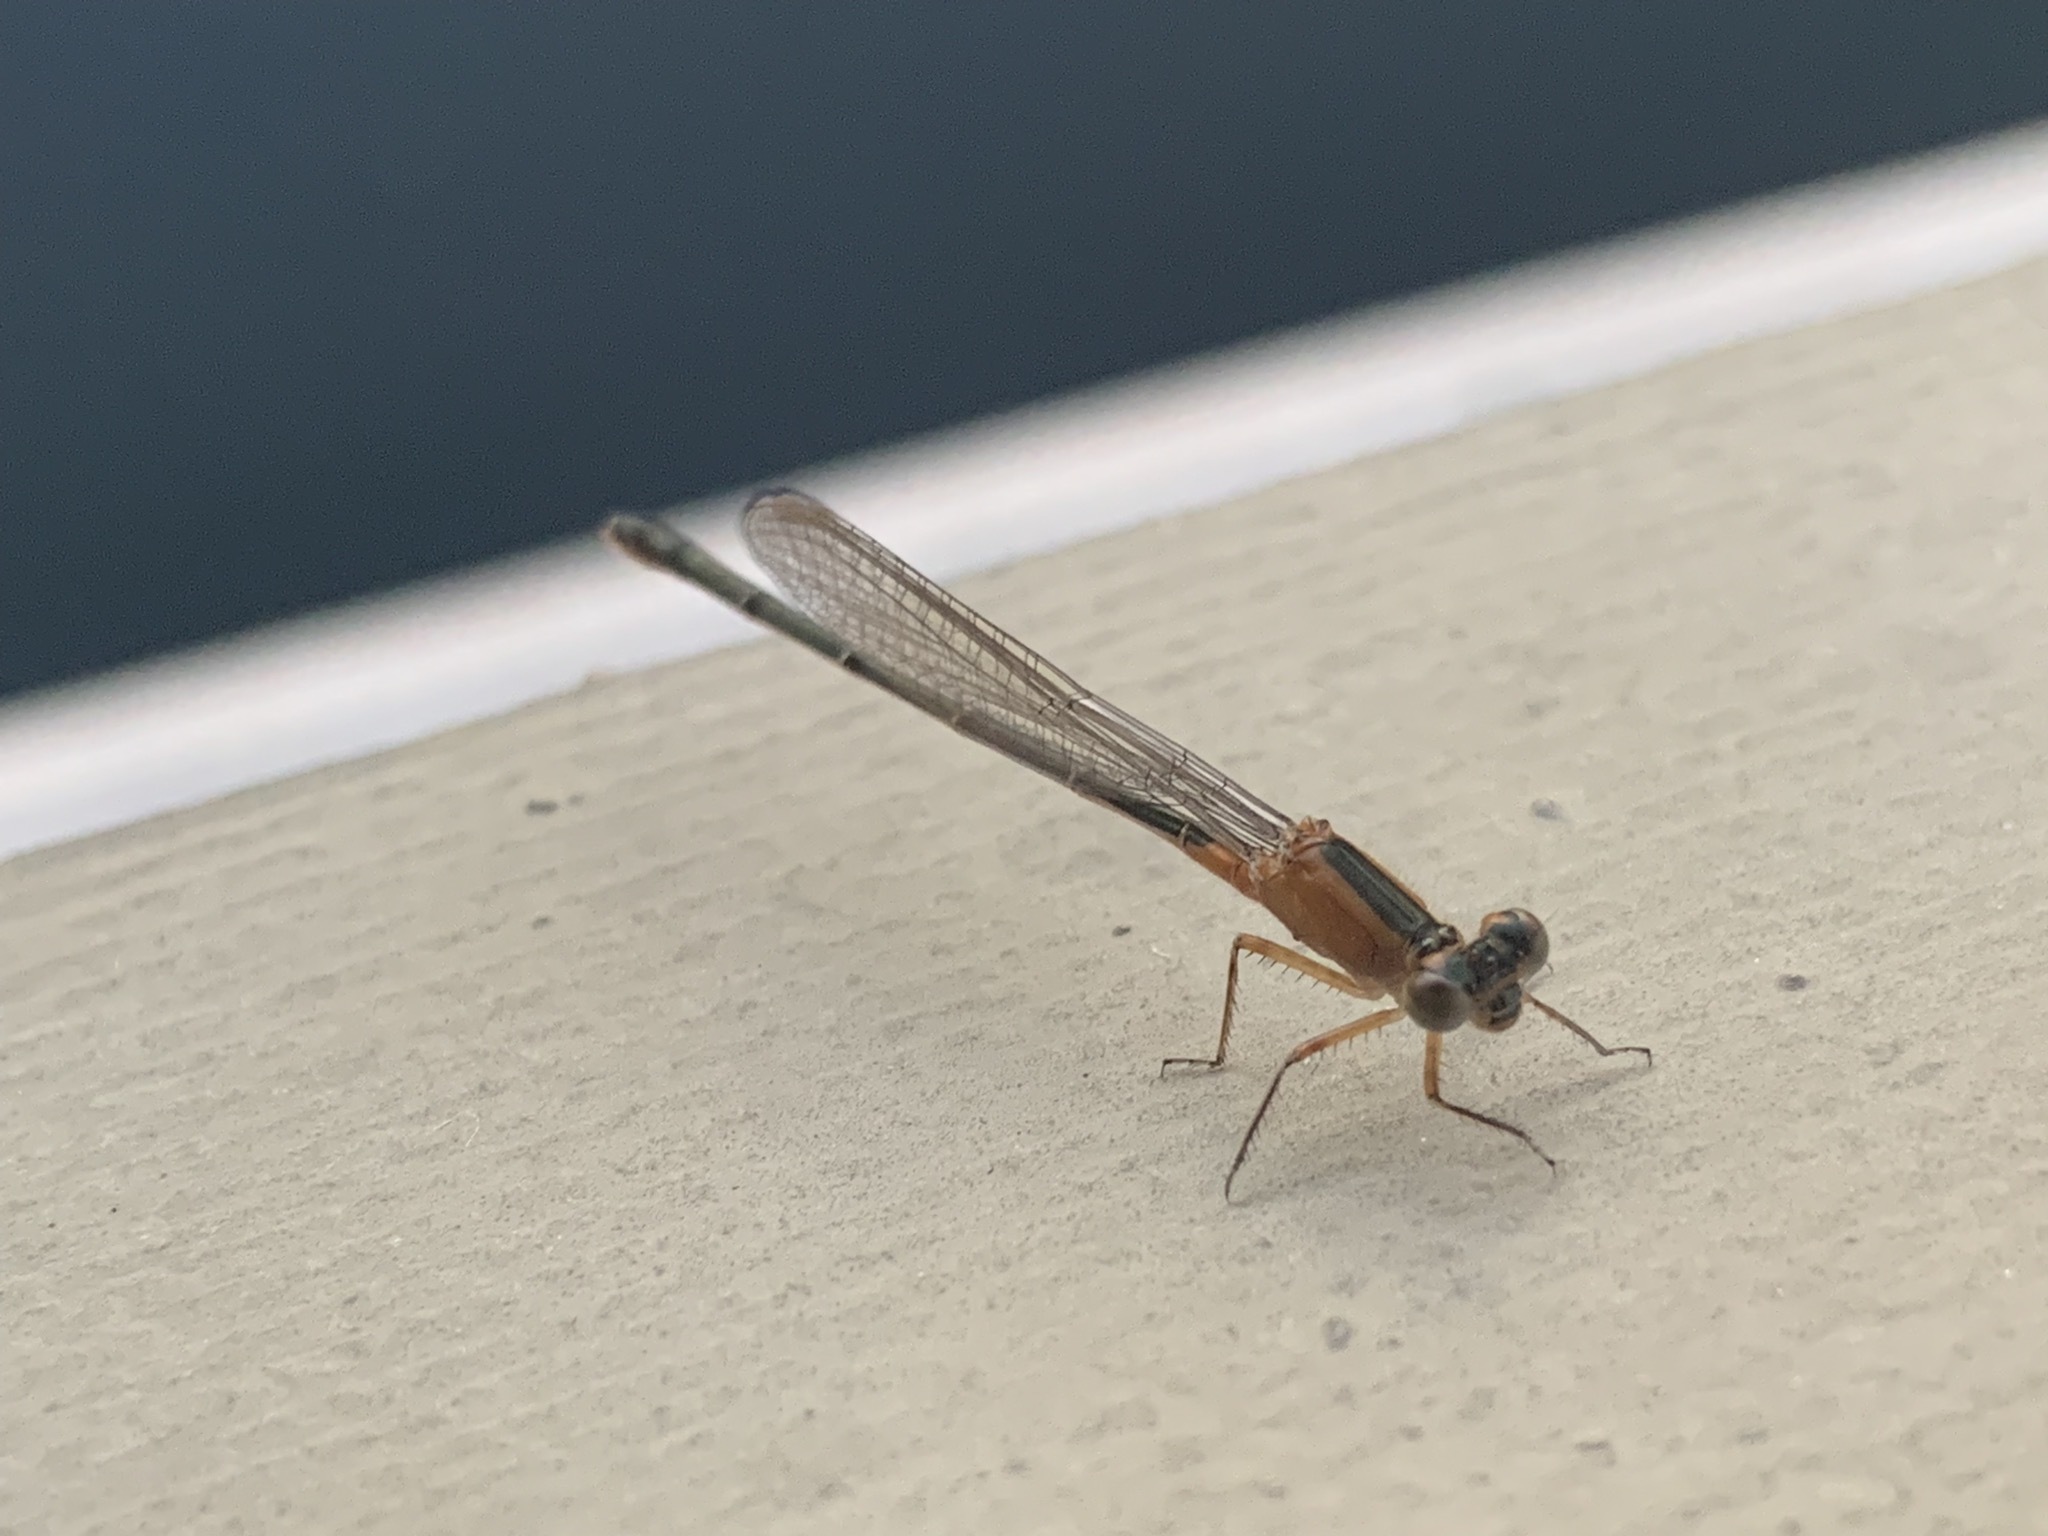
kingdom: Animalia
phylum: Arthropoda
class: Insecta
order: Odonata
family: Coenagrionidae
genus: Ischnura
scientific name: Ischnura ramburii
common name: Rambur's forktail
